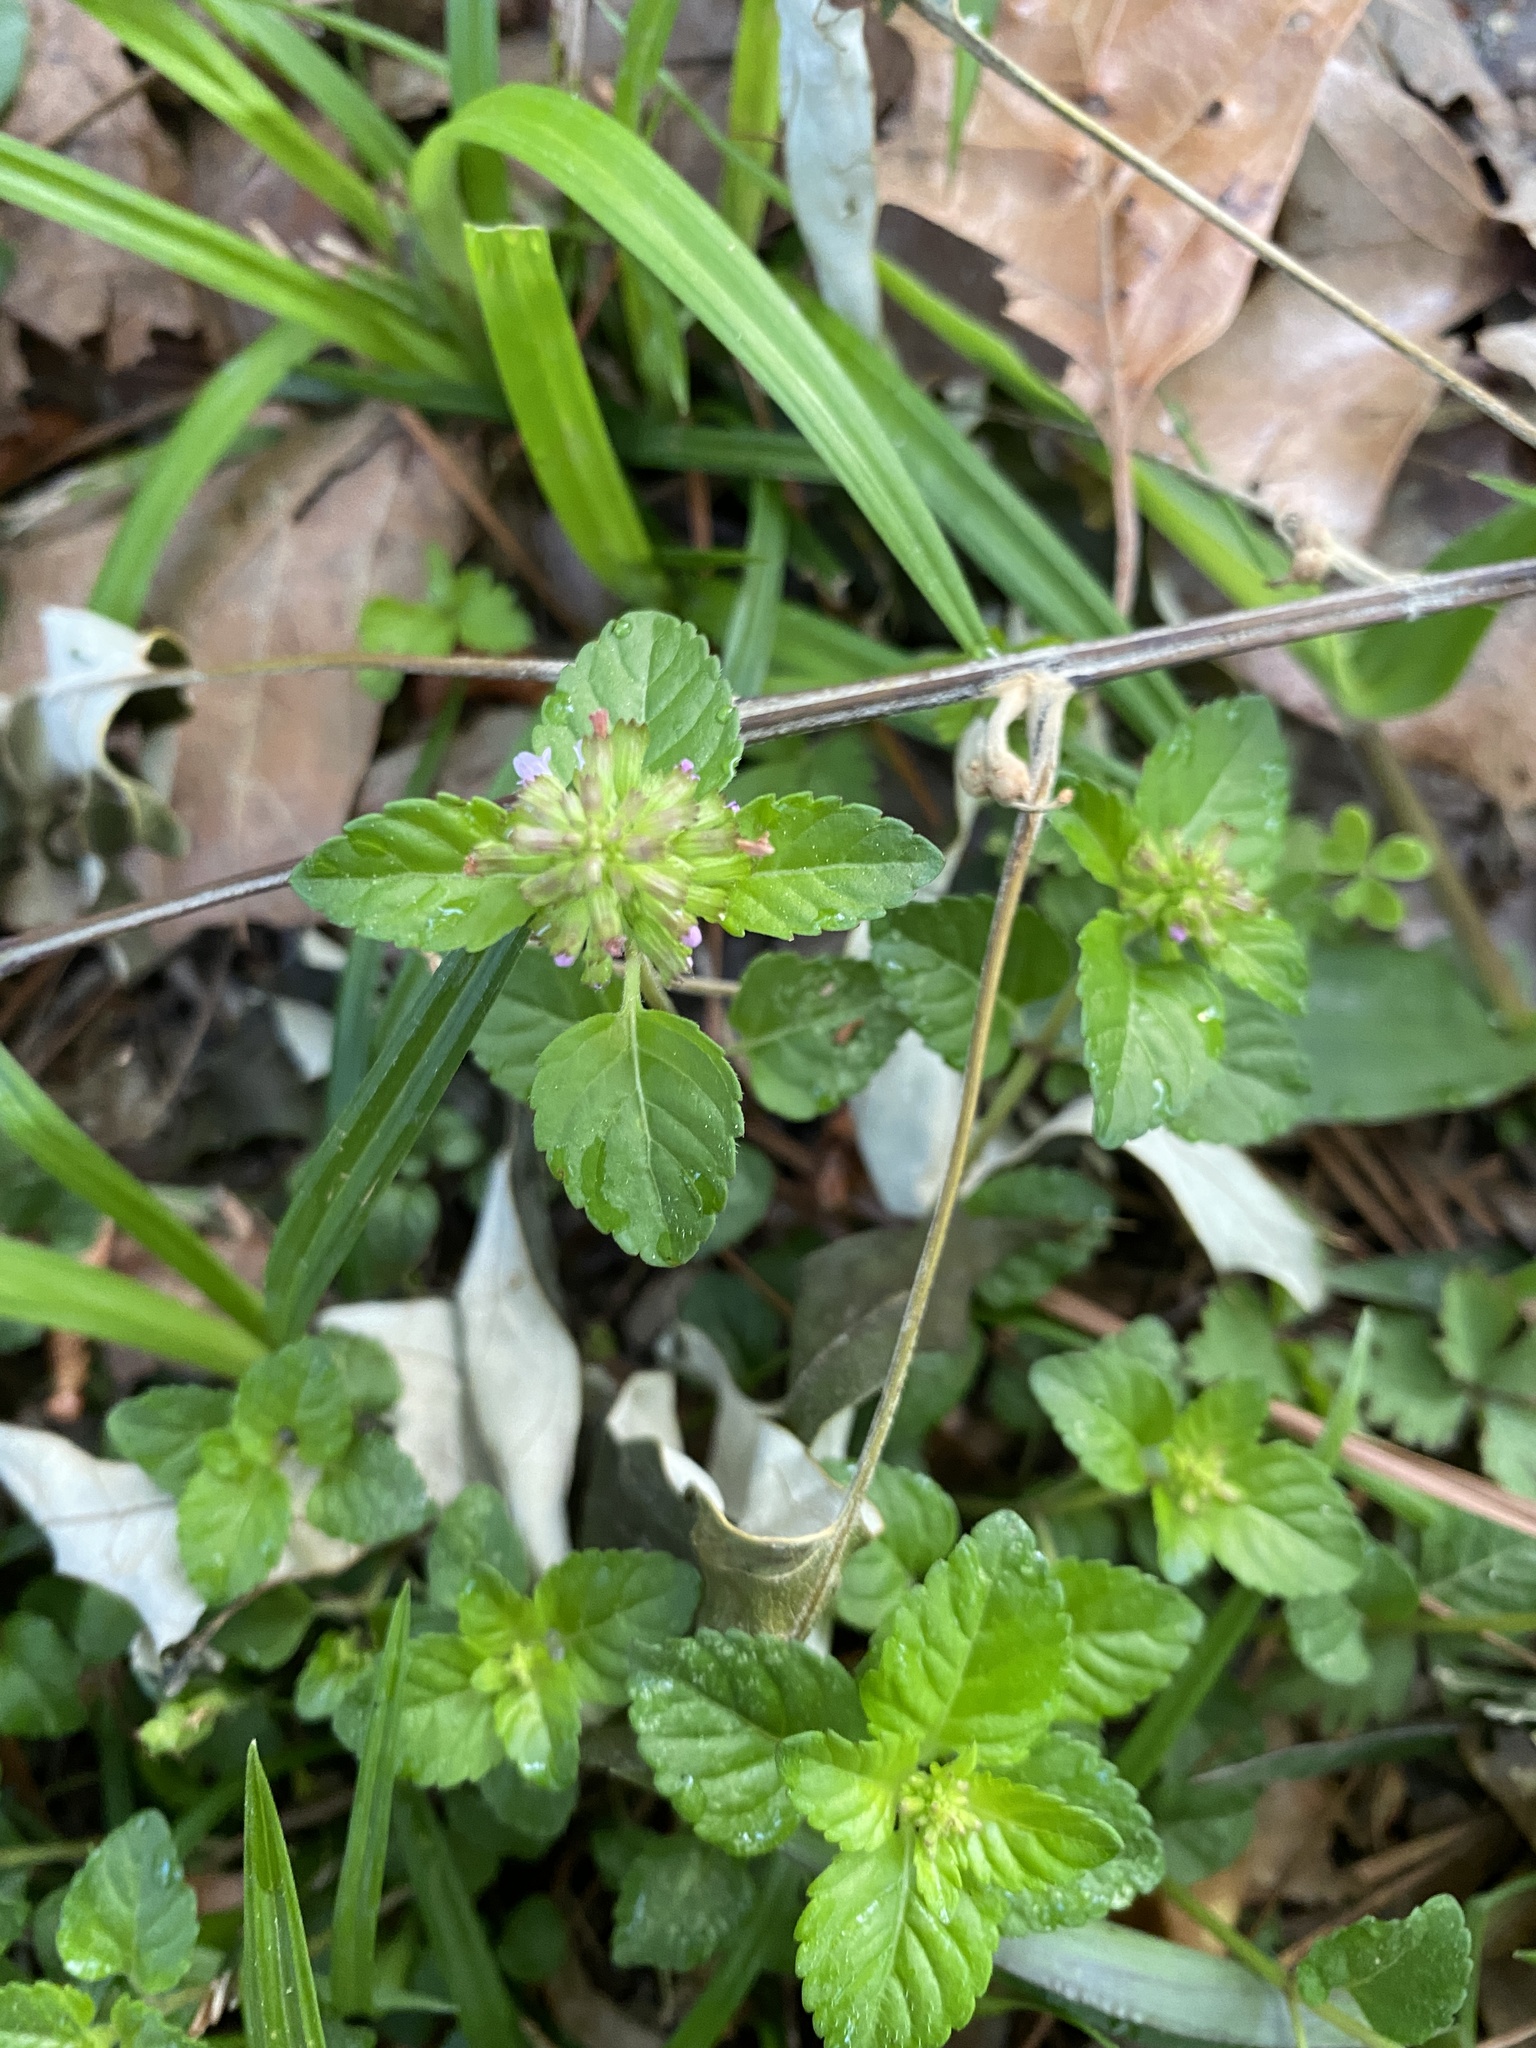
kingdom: Plantae
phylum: Tracheophyta
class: Magnoliopsida
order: Lamiales
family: Lamiaceae
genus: Clinopodium
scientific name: Clinopodium gracile
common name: Slender wild basil
